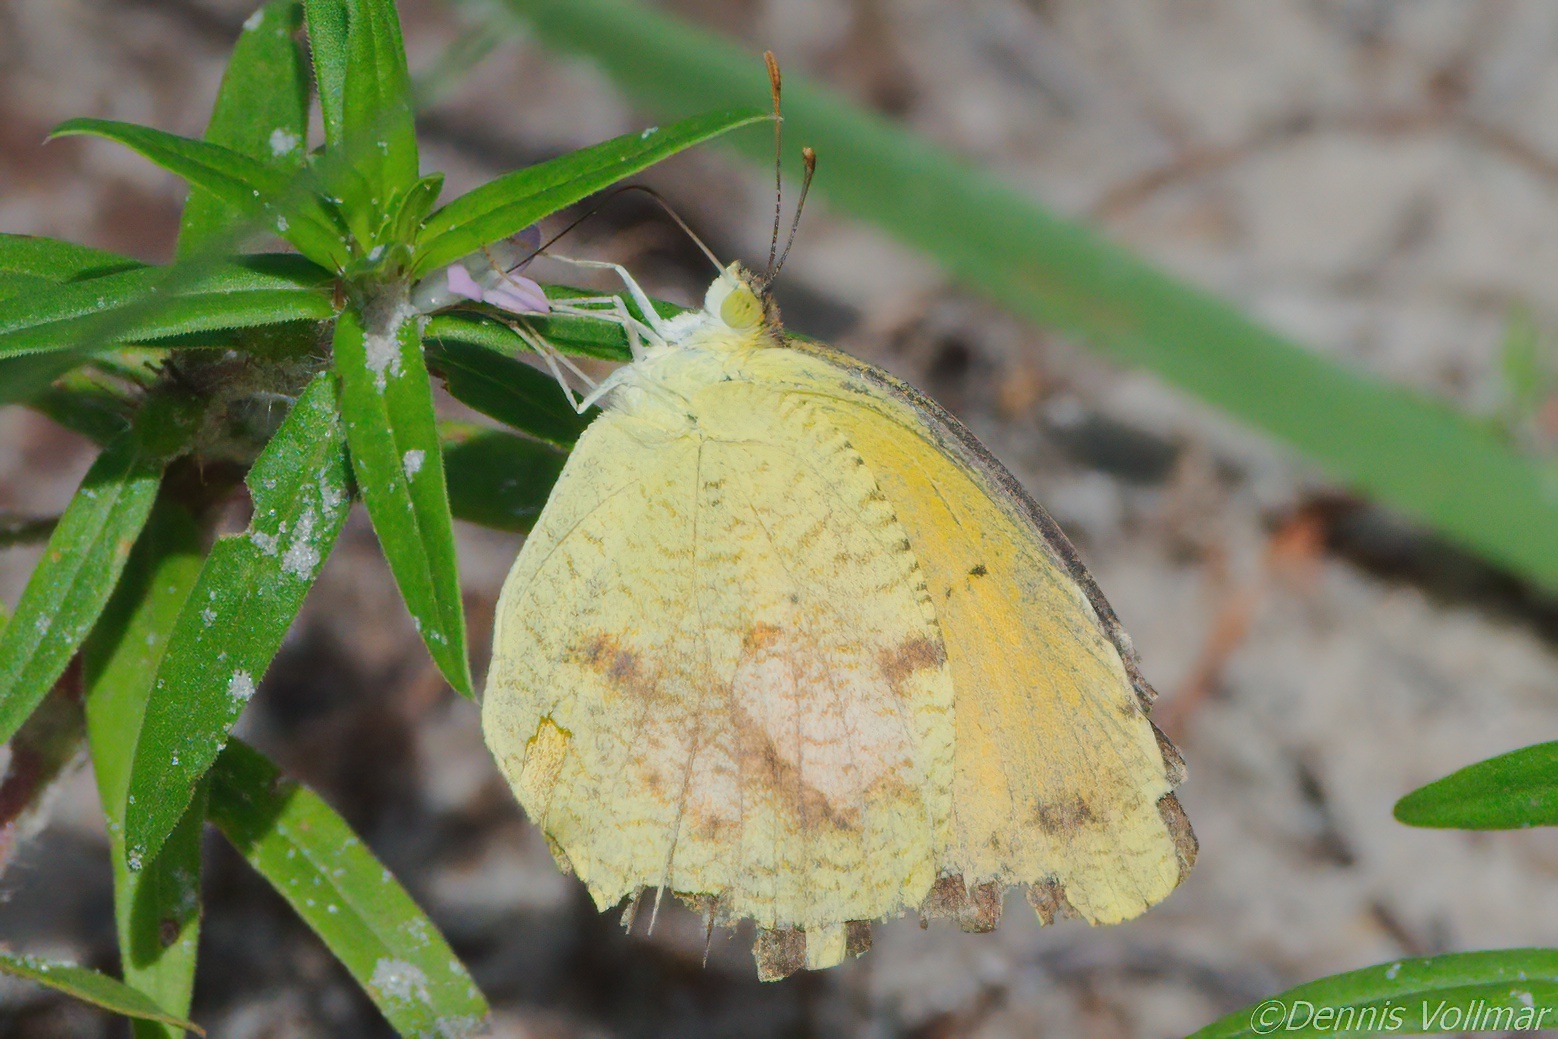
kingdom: Animalia
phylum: Arthropoda
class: Insecta
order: Lepidoptera
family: Pieridae
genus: Abaeis
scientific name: Abaeis nicippe
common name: Sleepy orange
